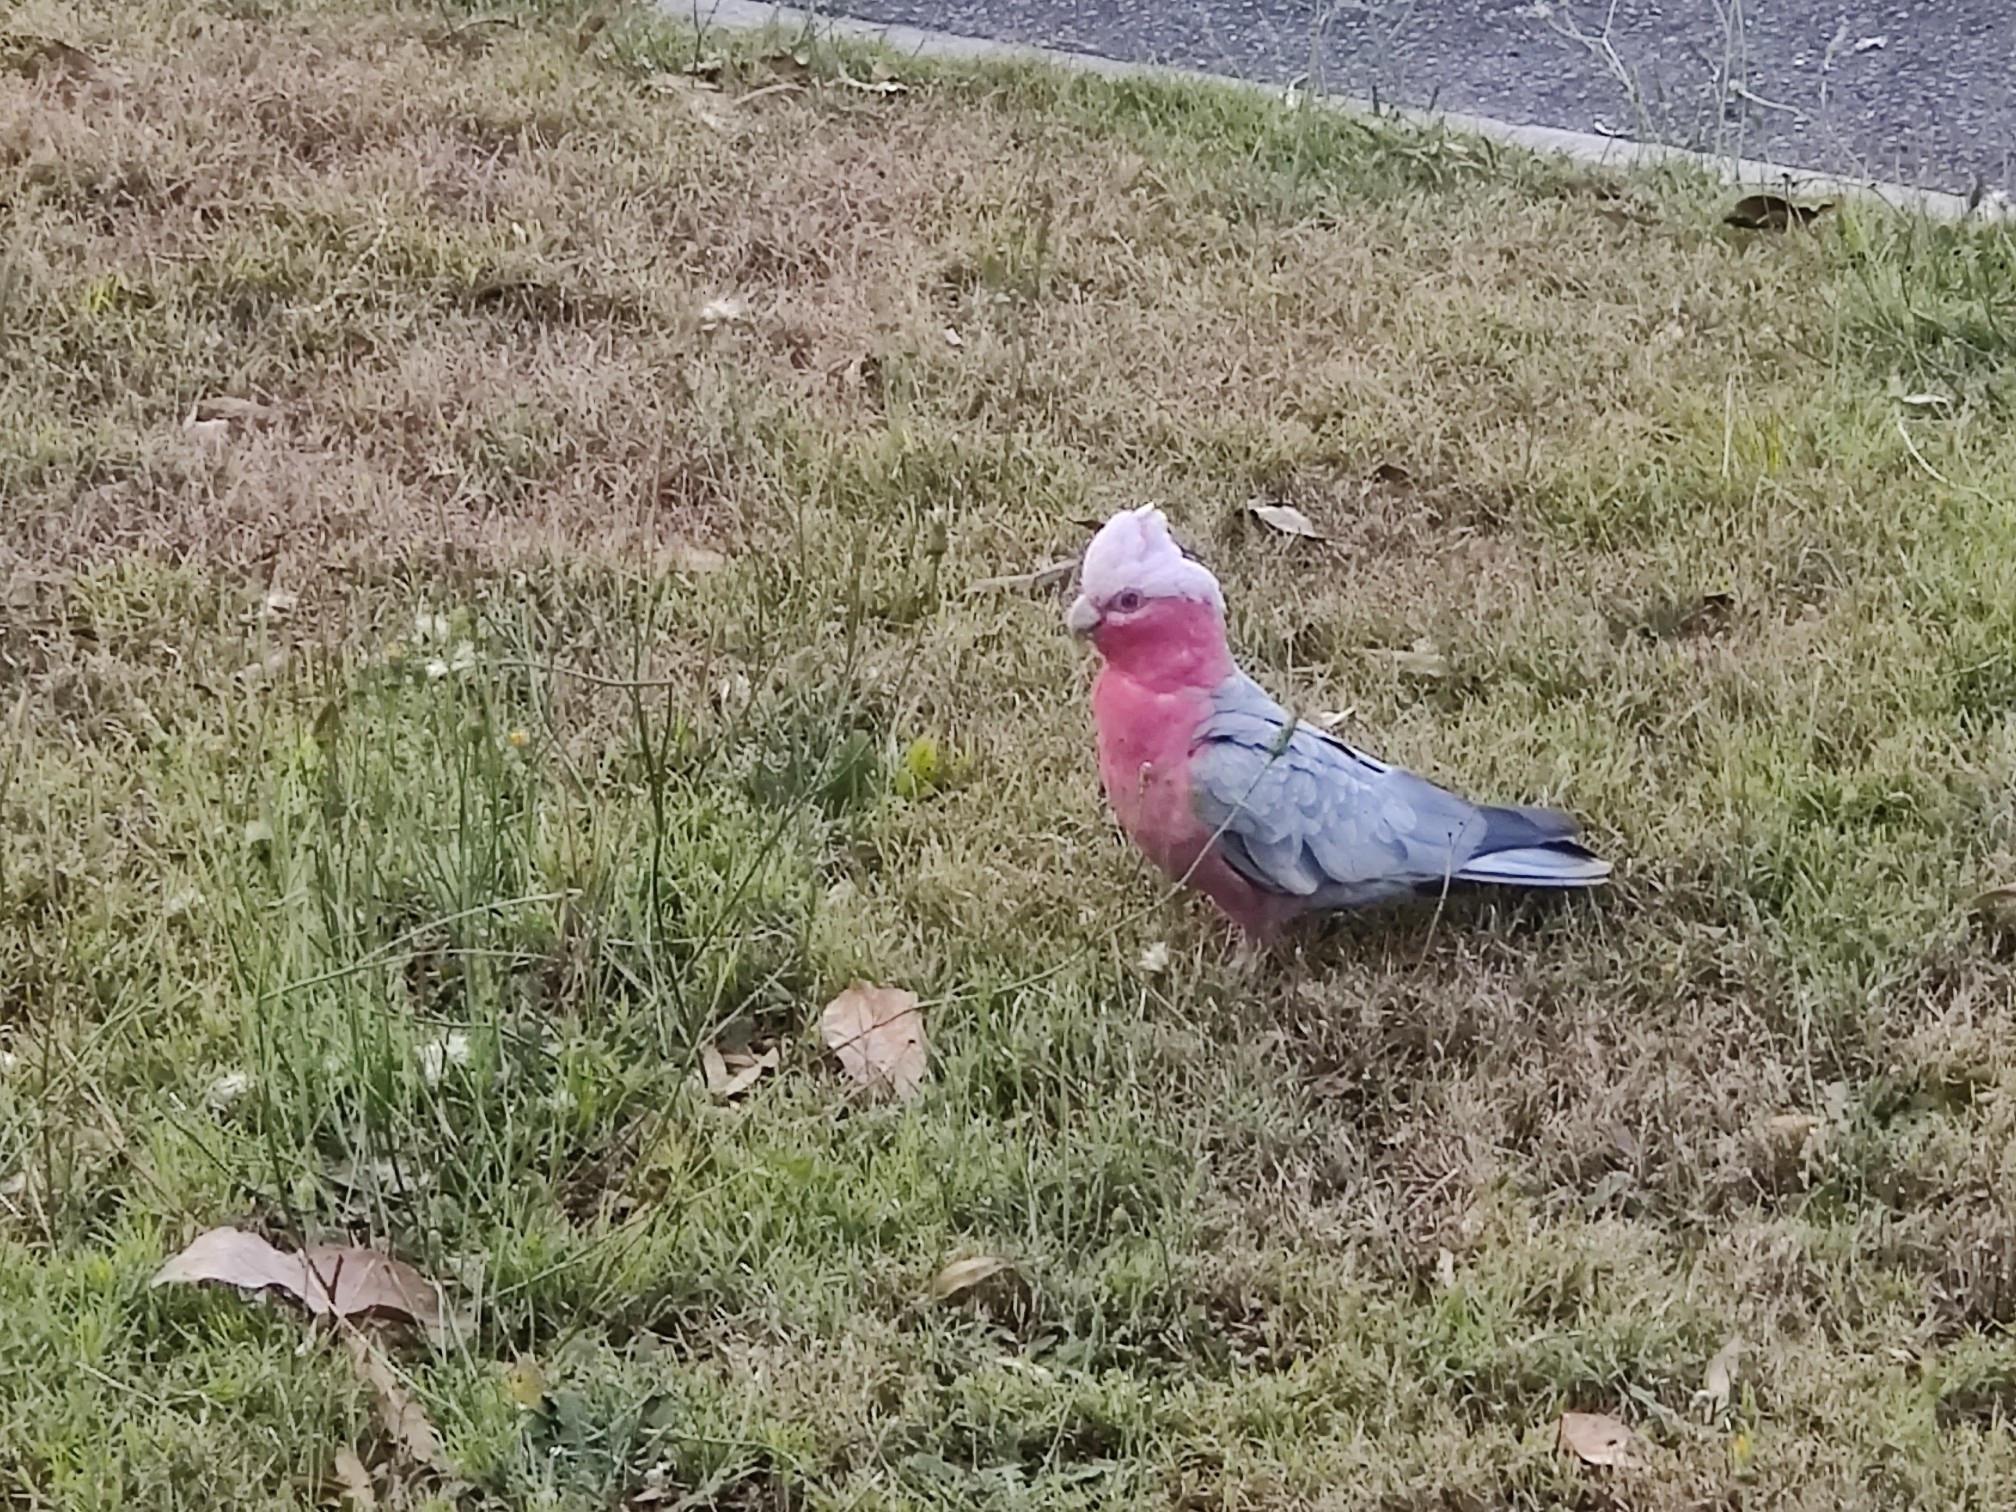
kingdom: Animalia
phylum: Chordata
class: Aves
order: Psittaciformes
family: Psittacidae
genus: Eolophus
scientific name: Eolophus roseicapilla
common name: Galah
